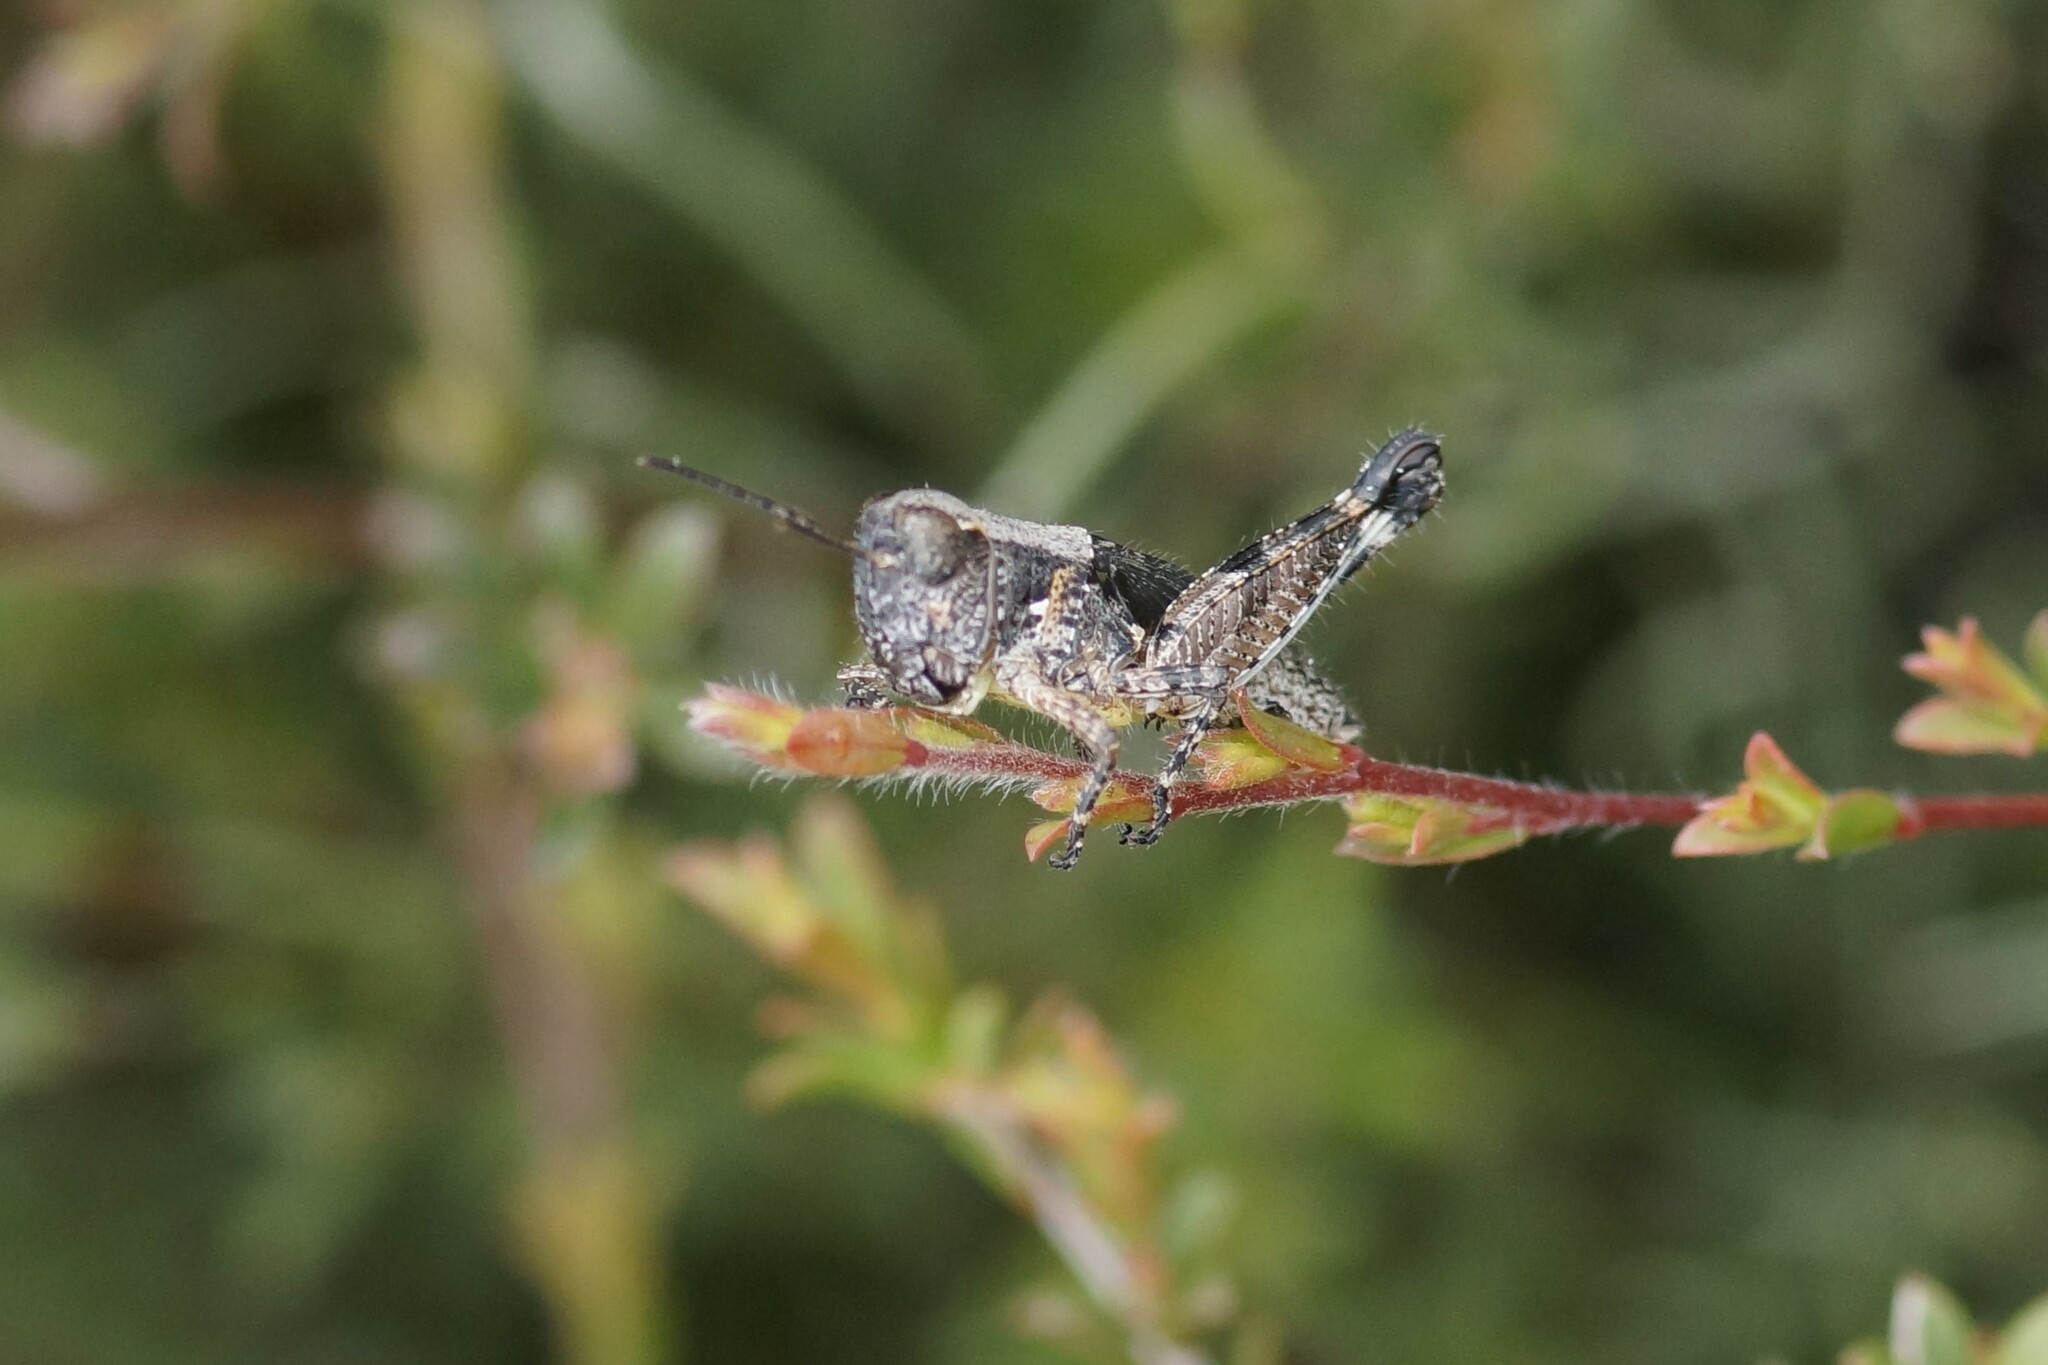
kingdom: Animalia
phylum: Arthropoda
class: Insecta
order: Orthoptera
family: Acrididae
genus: Phaulacridium
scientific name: Phaulacridium vittatum
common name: Wingless grasshopper
